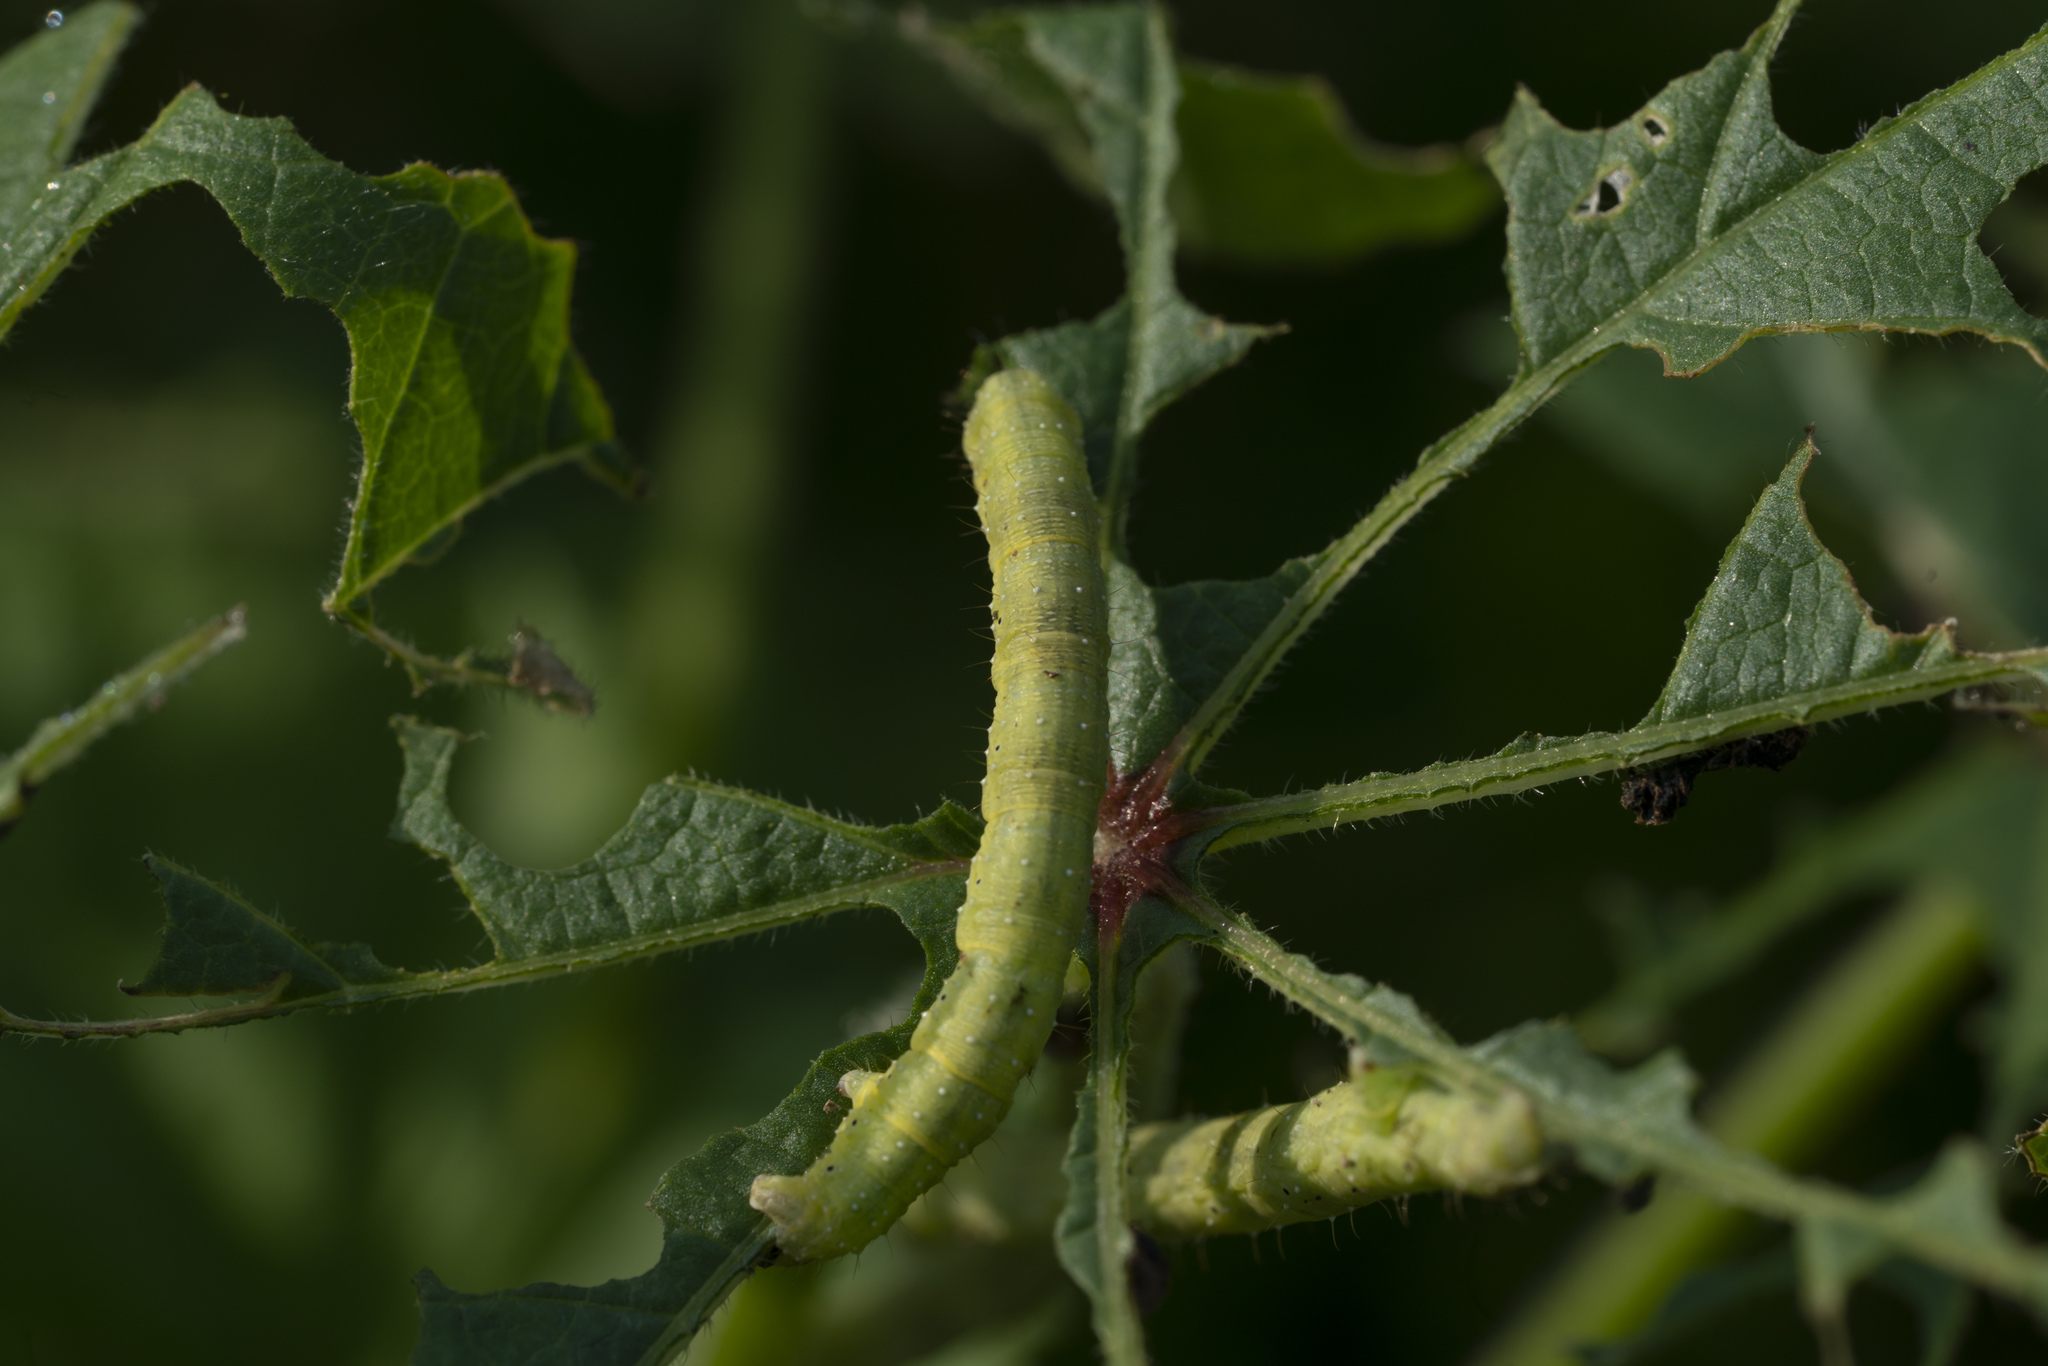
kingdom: Animalia
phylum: Arthropoda
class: Insecta
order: Lepidoptera
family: Geometridae
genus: Larentia
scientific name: Larentia clavaria
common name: Mallow
